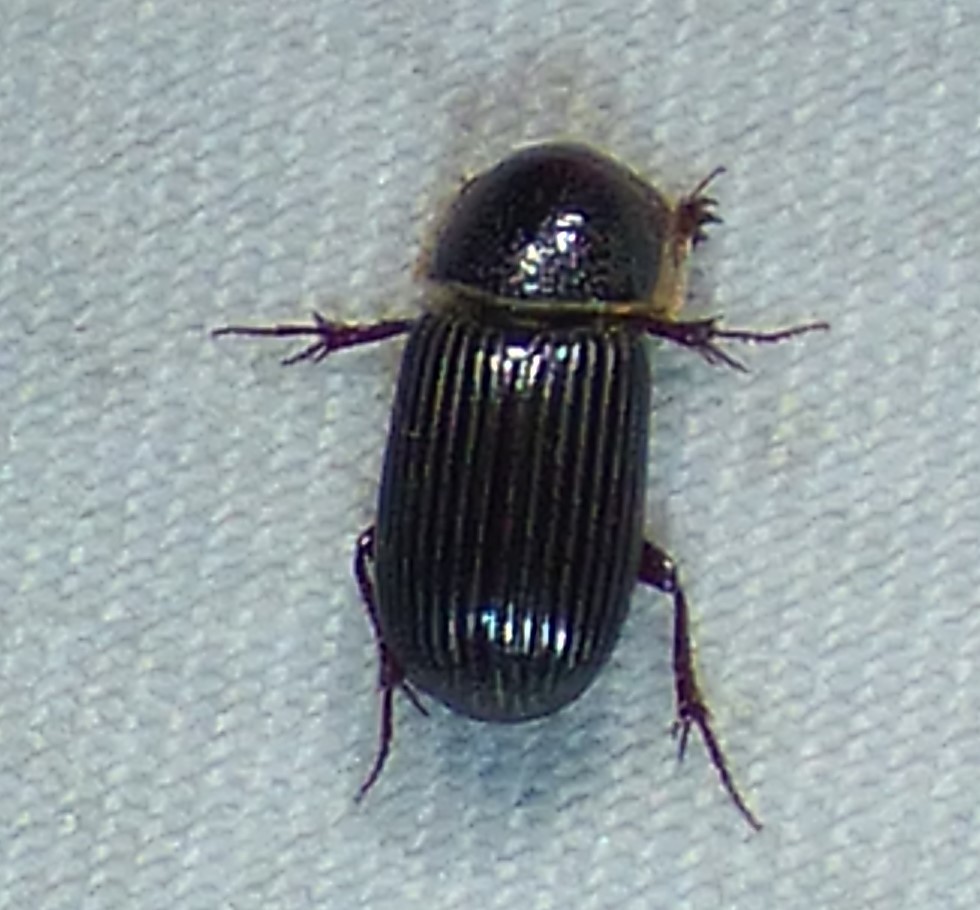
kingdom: Animalia
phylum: Arthropoda
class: Insecta
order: Coleoptera
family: Scarabaeidae
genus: Martineziana
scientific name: Martineziana dutertrei
